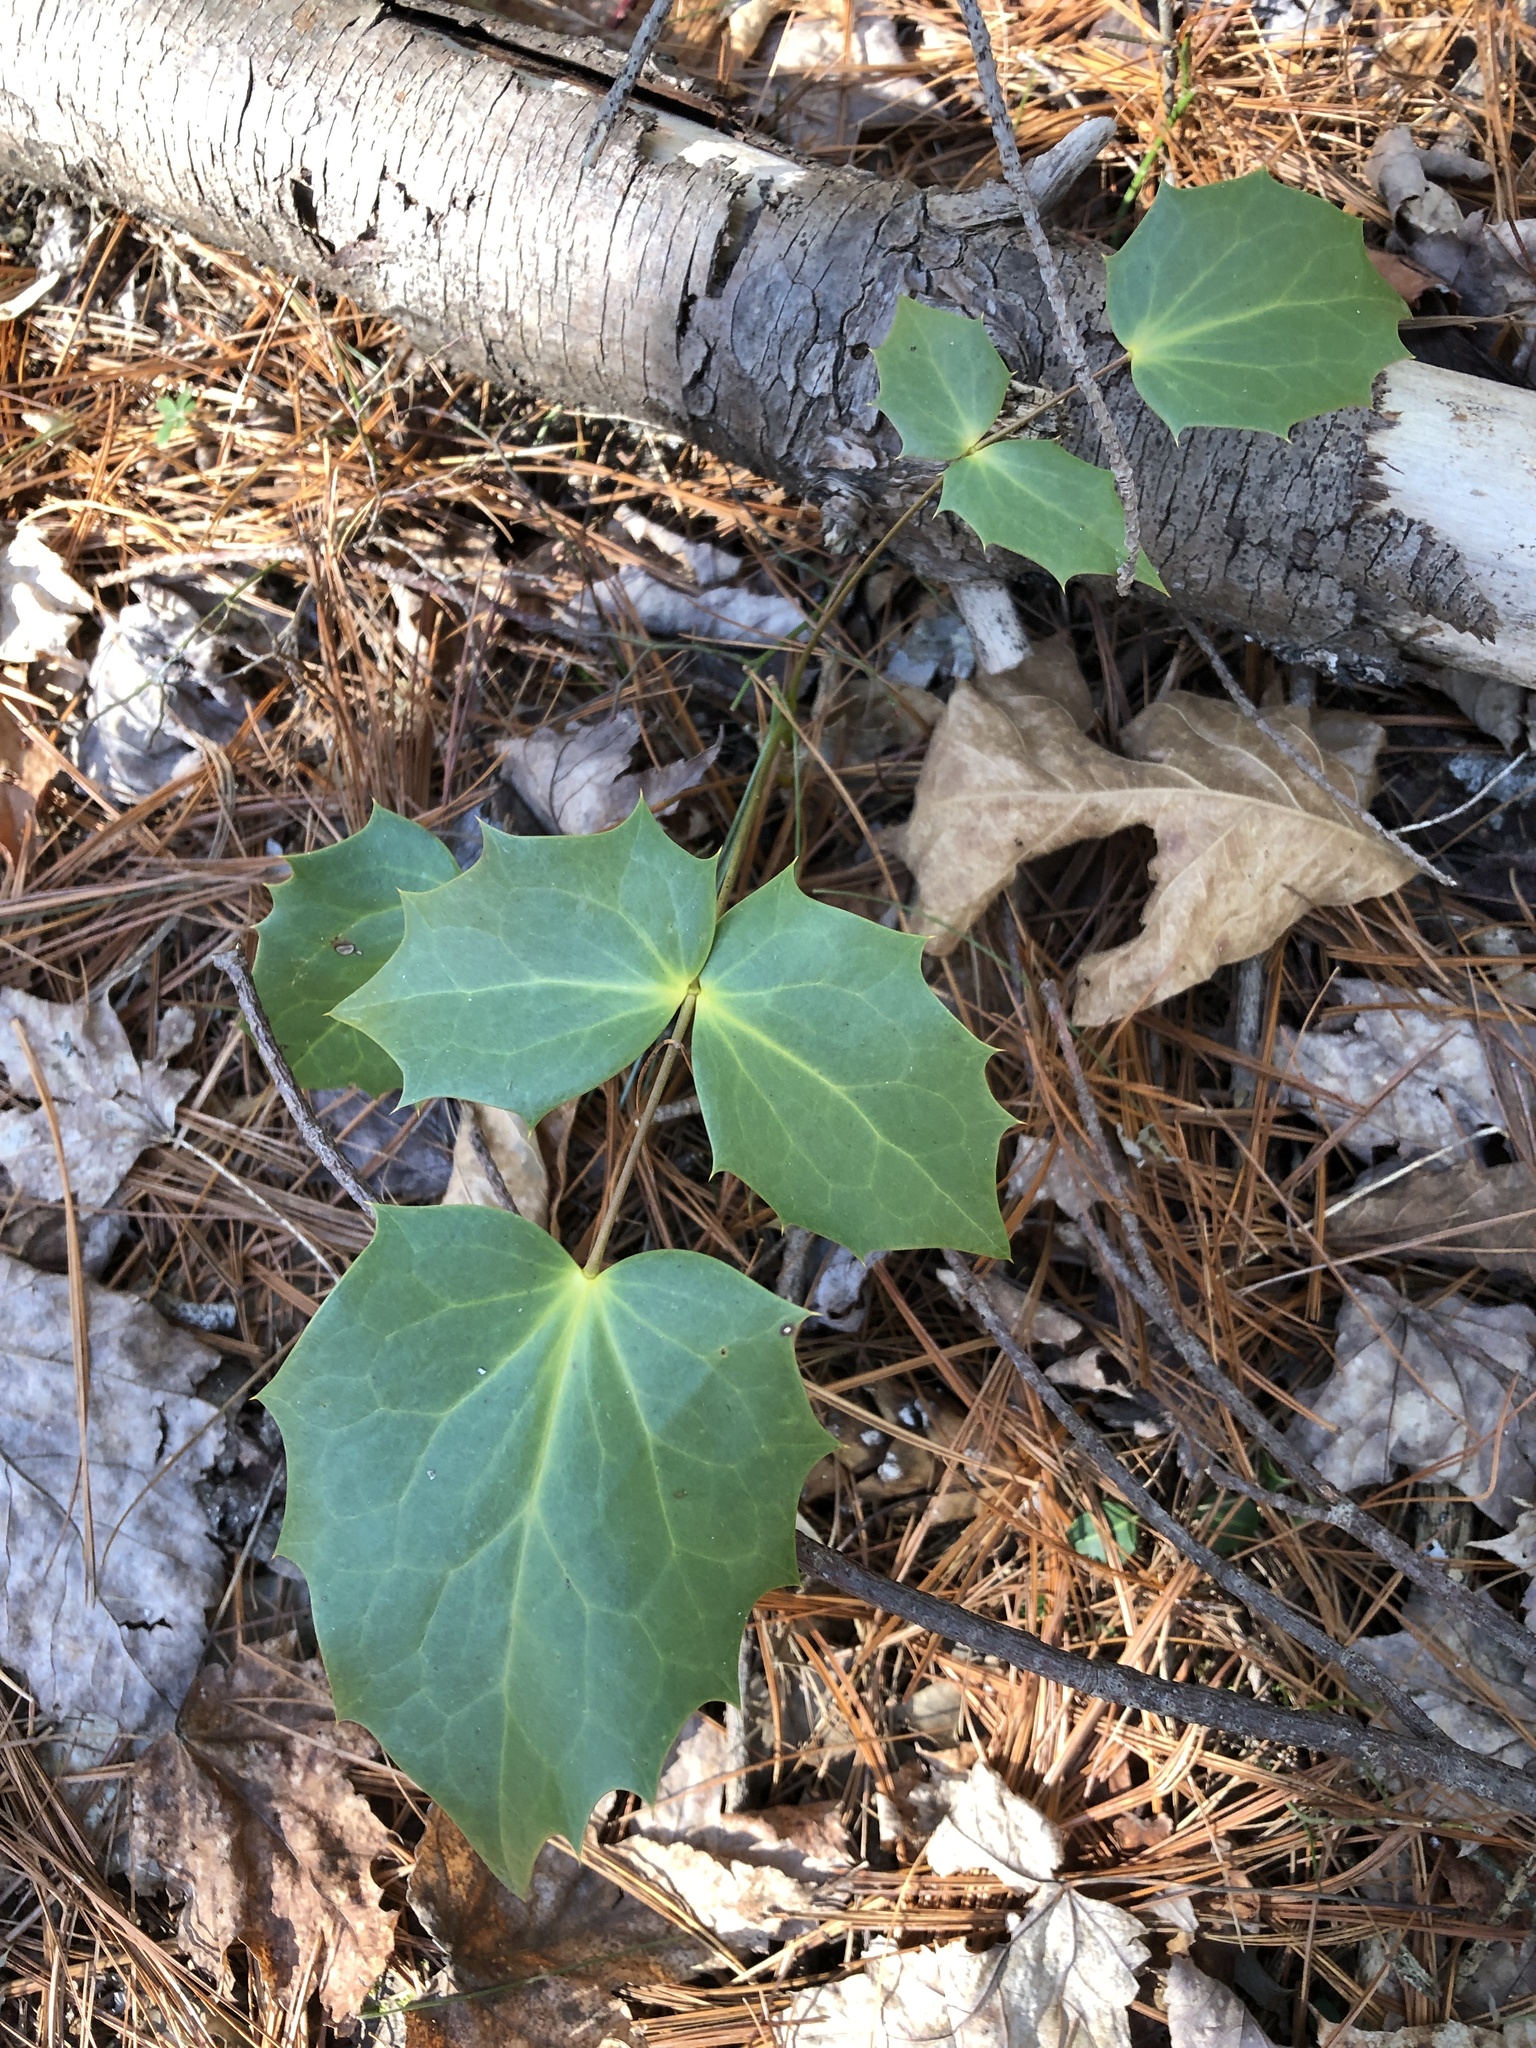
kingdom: Plantae
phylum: Tracheophyta
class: Magnoliopsida
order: Ranunculales
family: Berberidaceae
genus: Mahonia
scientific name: Mahonia bealei
